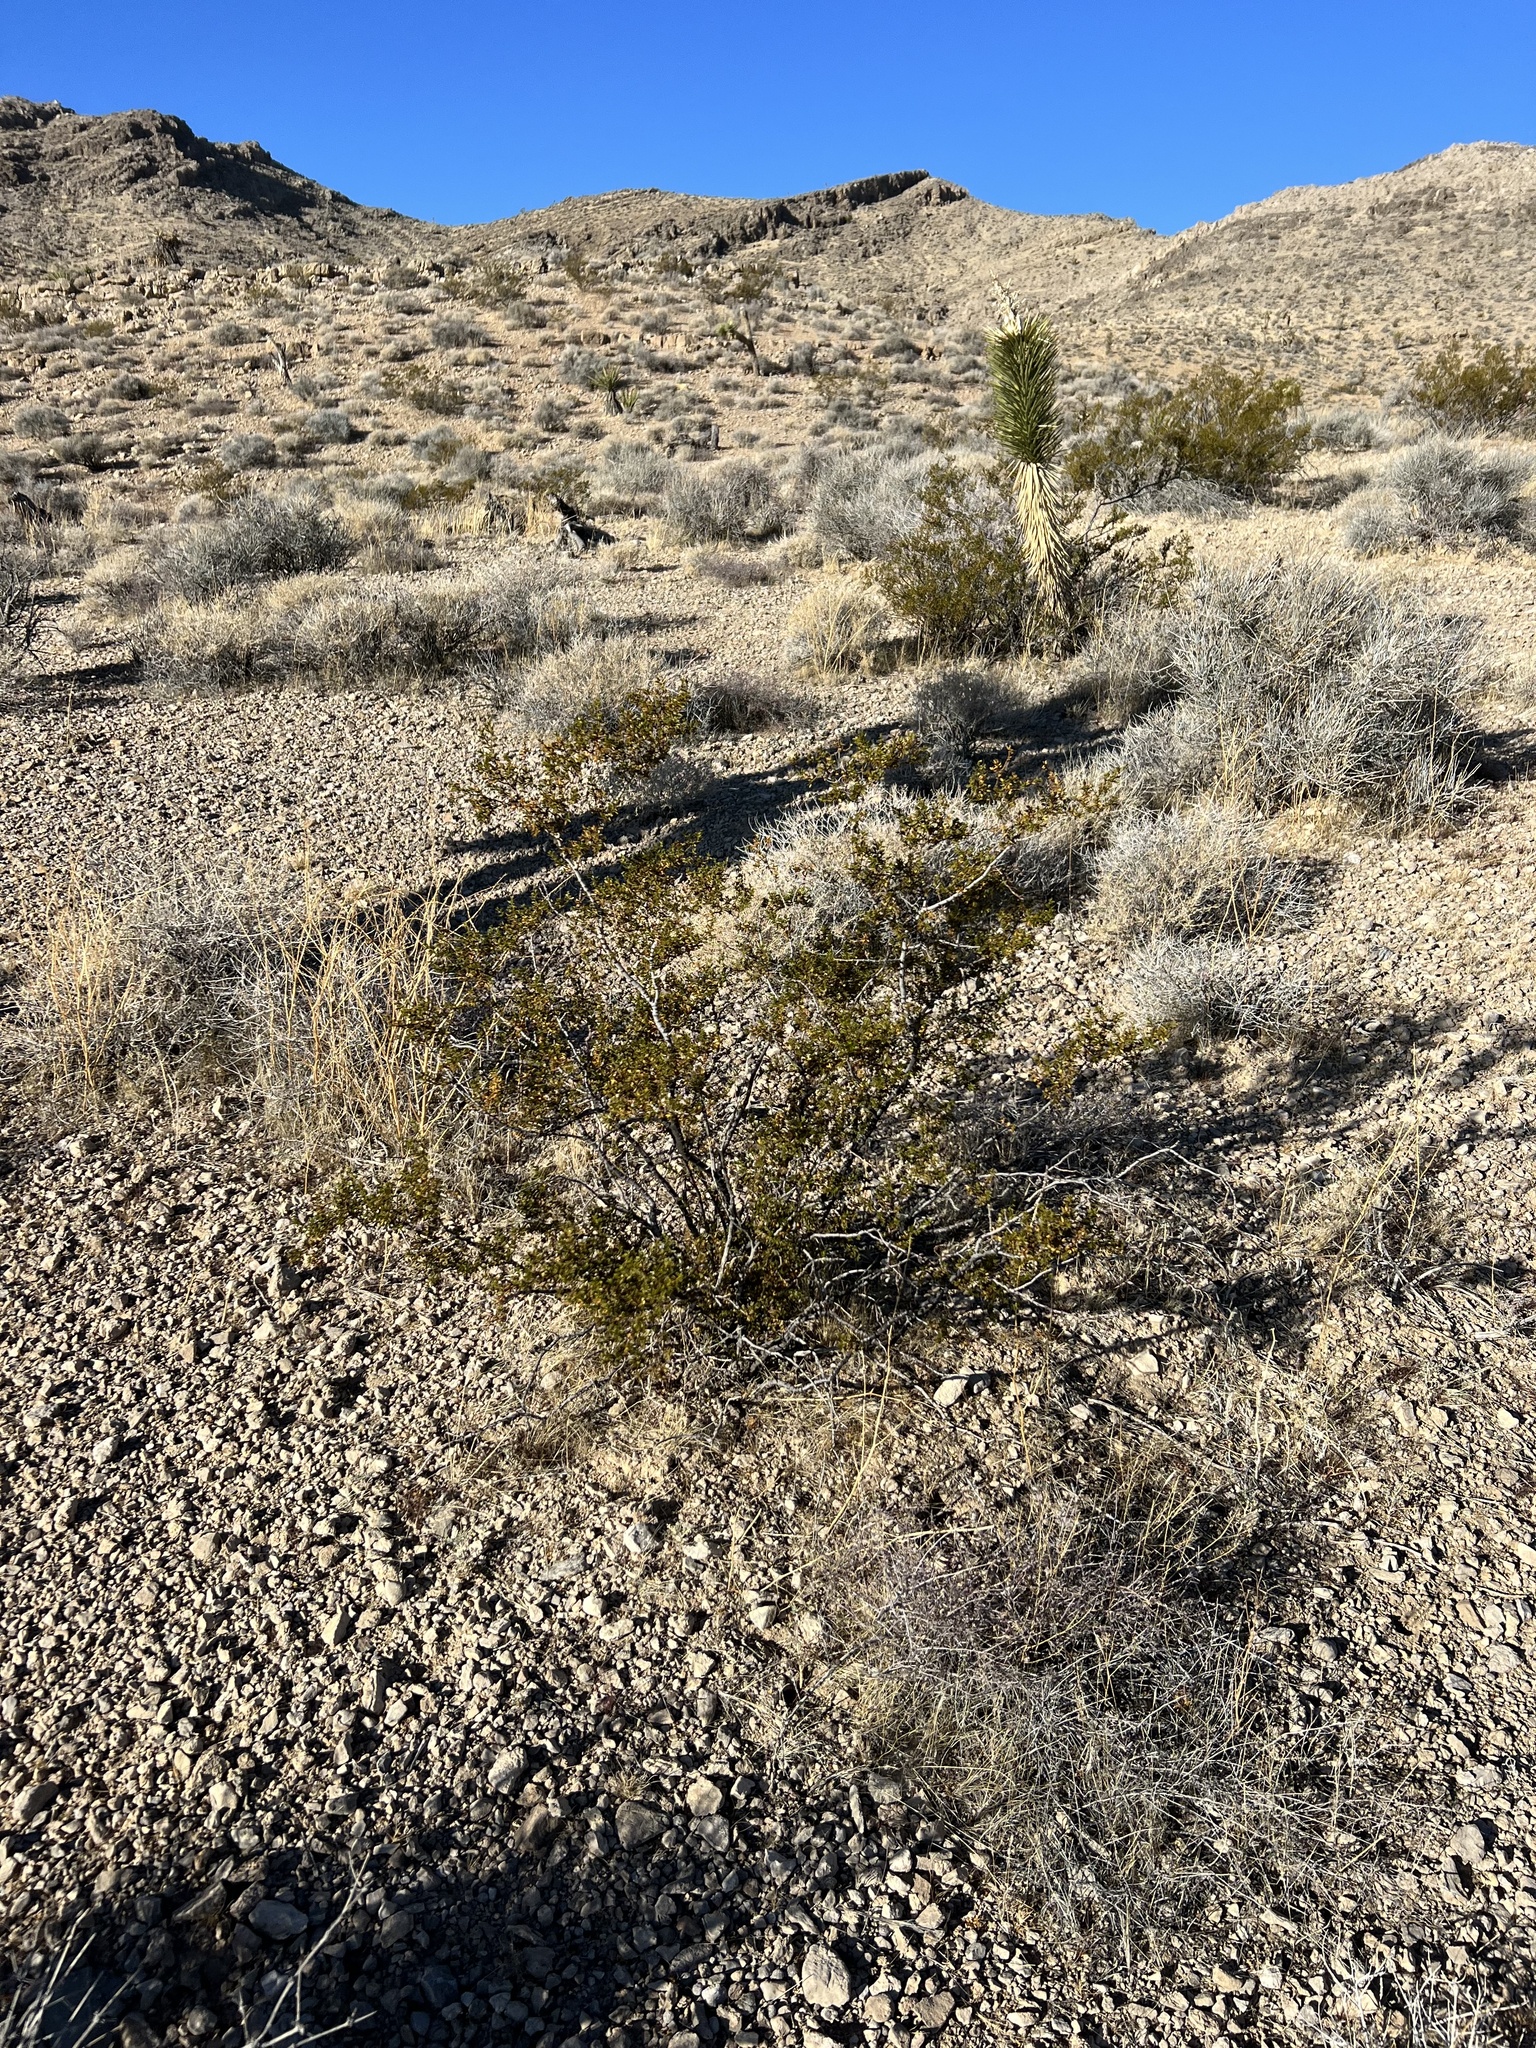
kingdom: Plantae
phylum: Tracheophyta
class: Magnoliopsida
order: Zygophyllales
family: Zygophyllaceae
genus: Larrea
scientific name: Larrea tridentata
